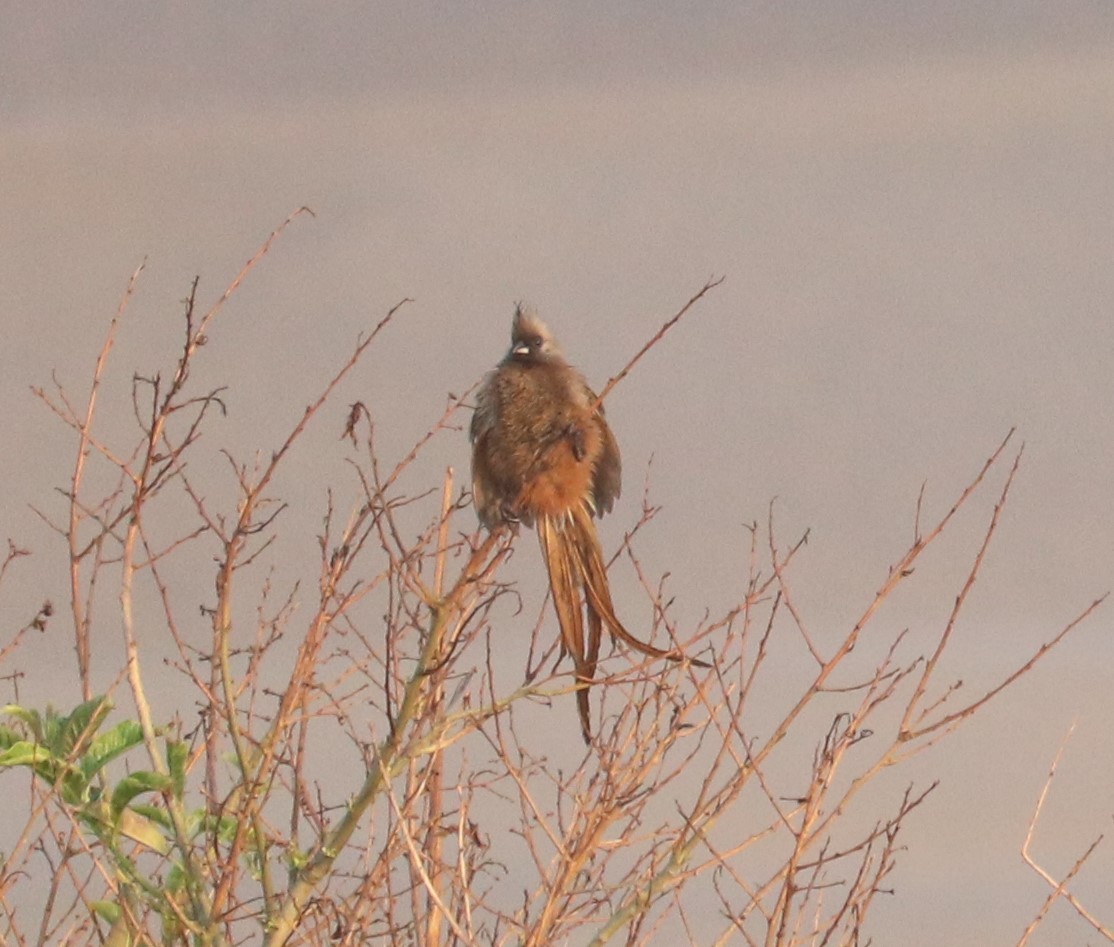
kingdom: Animalia
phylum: Chordata
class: Aves
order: Coliiformes
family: Coliidae
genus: Colius
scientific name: Colius striatus
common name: Speckled mousebird
